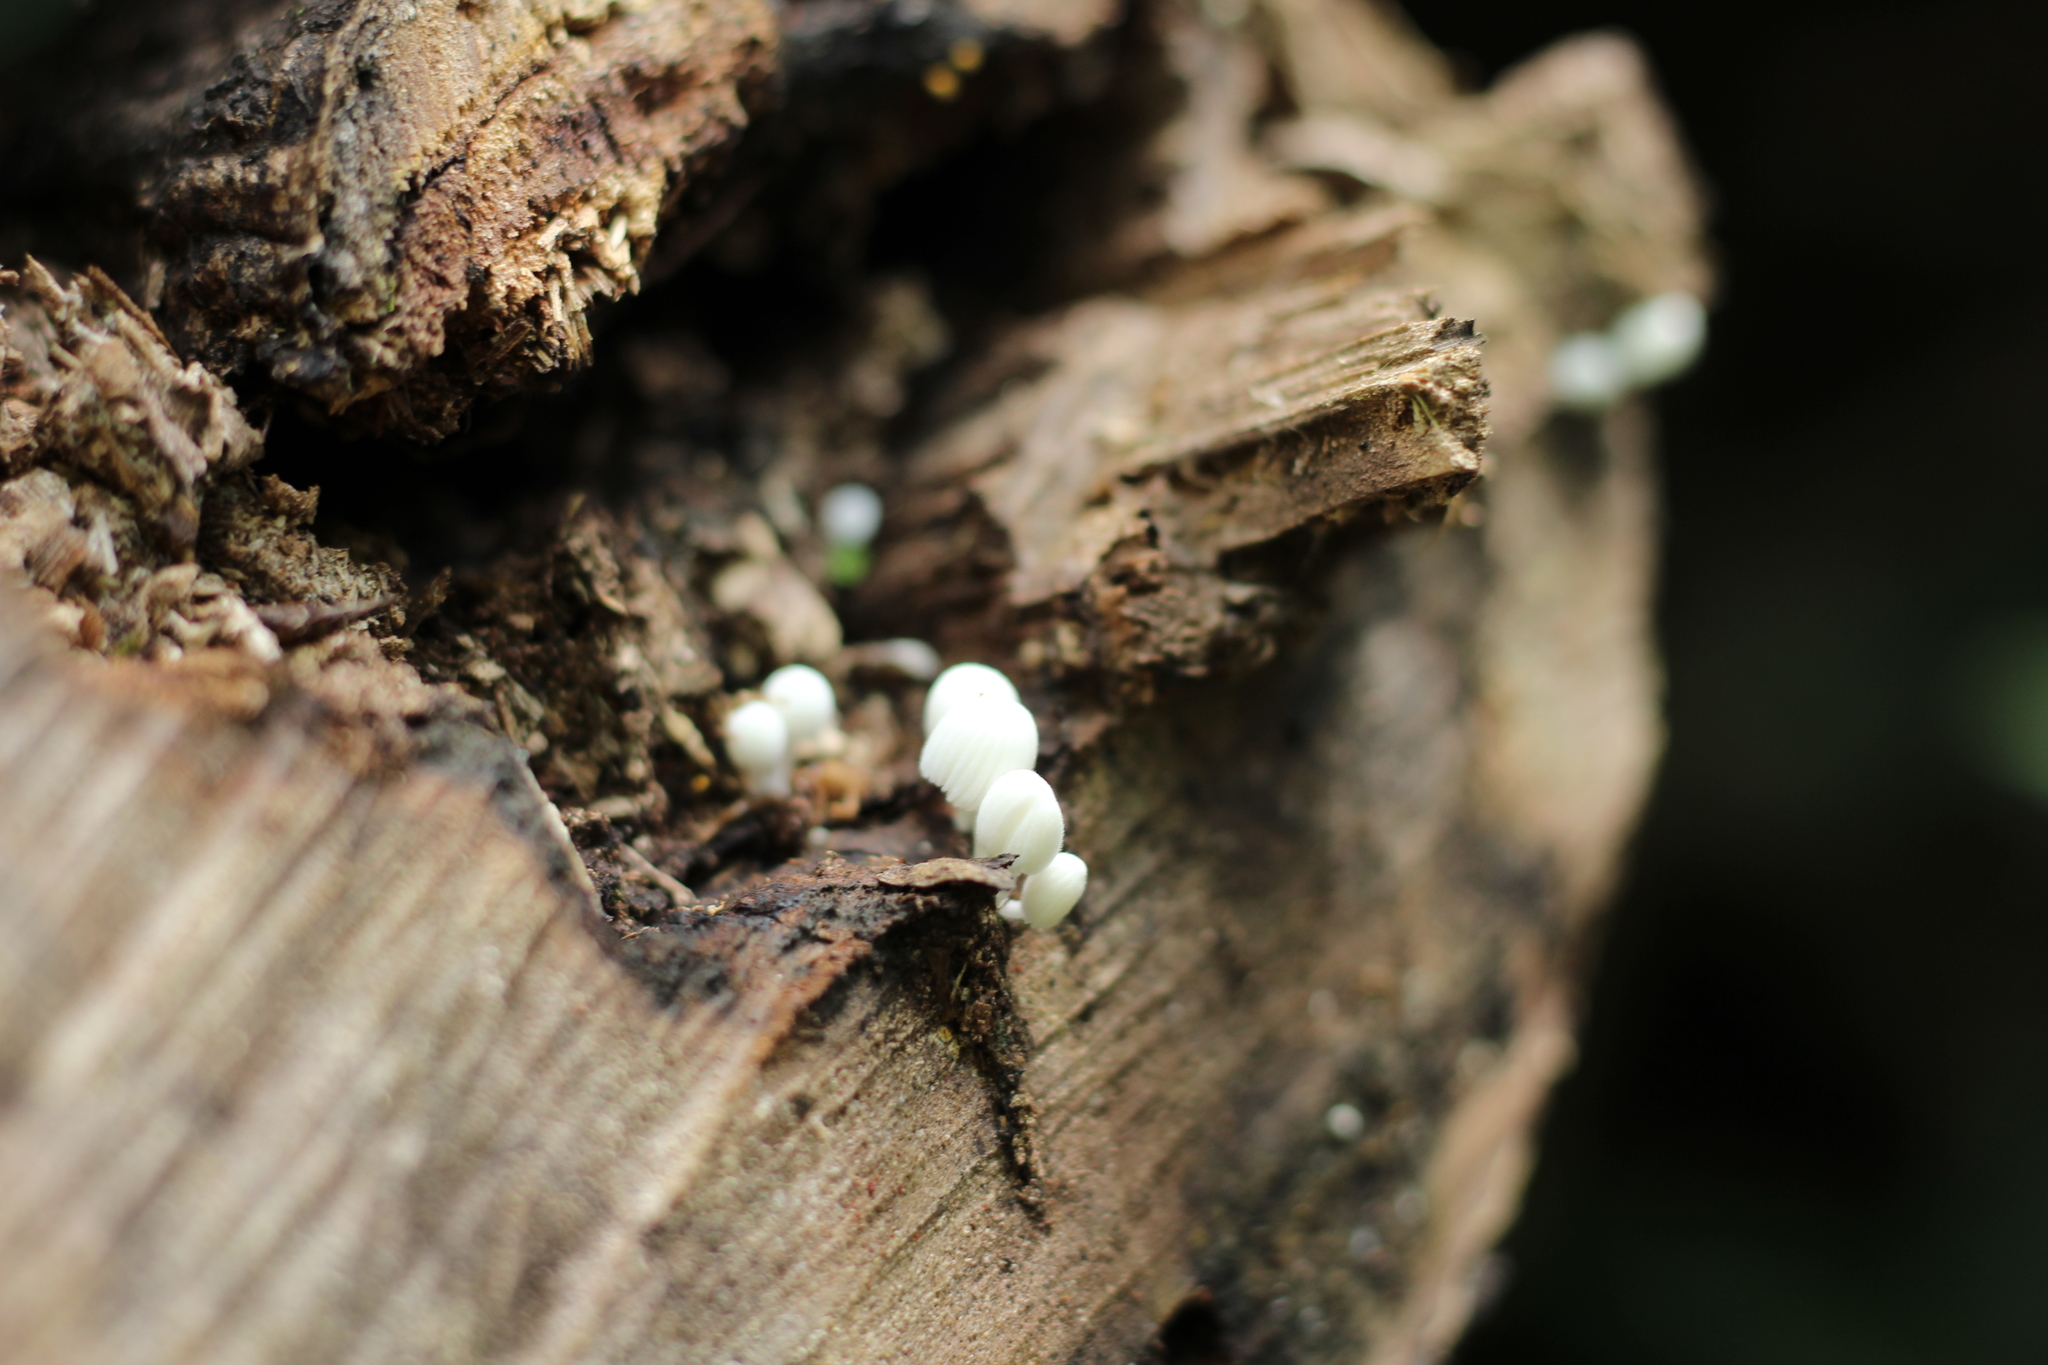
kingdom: Fungi
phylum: Basidiomycota
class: Agaricomycetes
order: Agaricales
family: Psathyrellaceae
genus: Coprinellus
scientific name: Coprinellus disseminatus
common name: Fairies' bonnets
